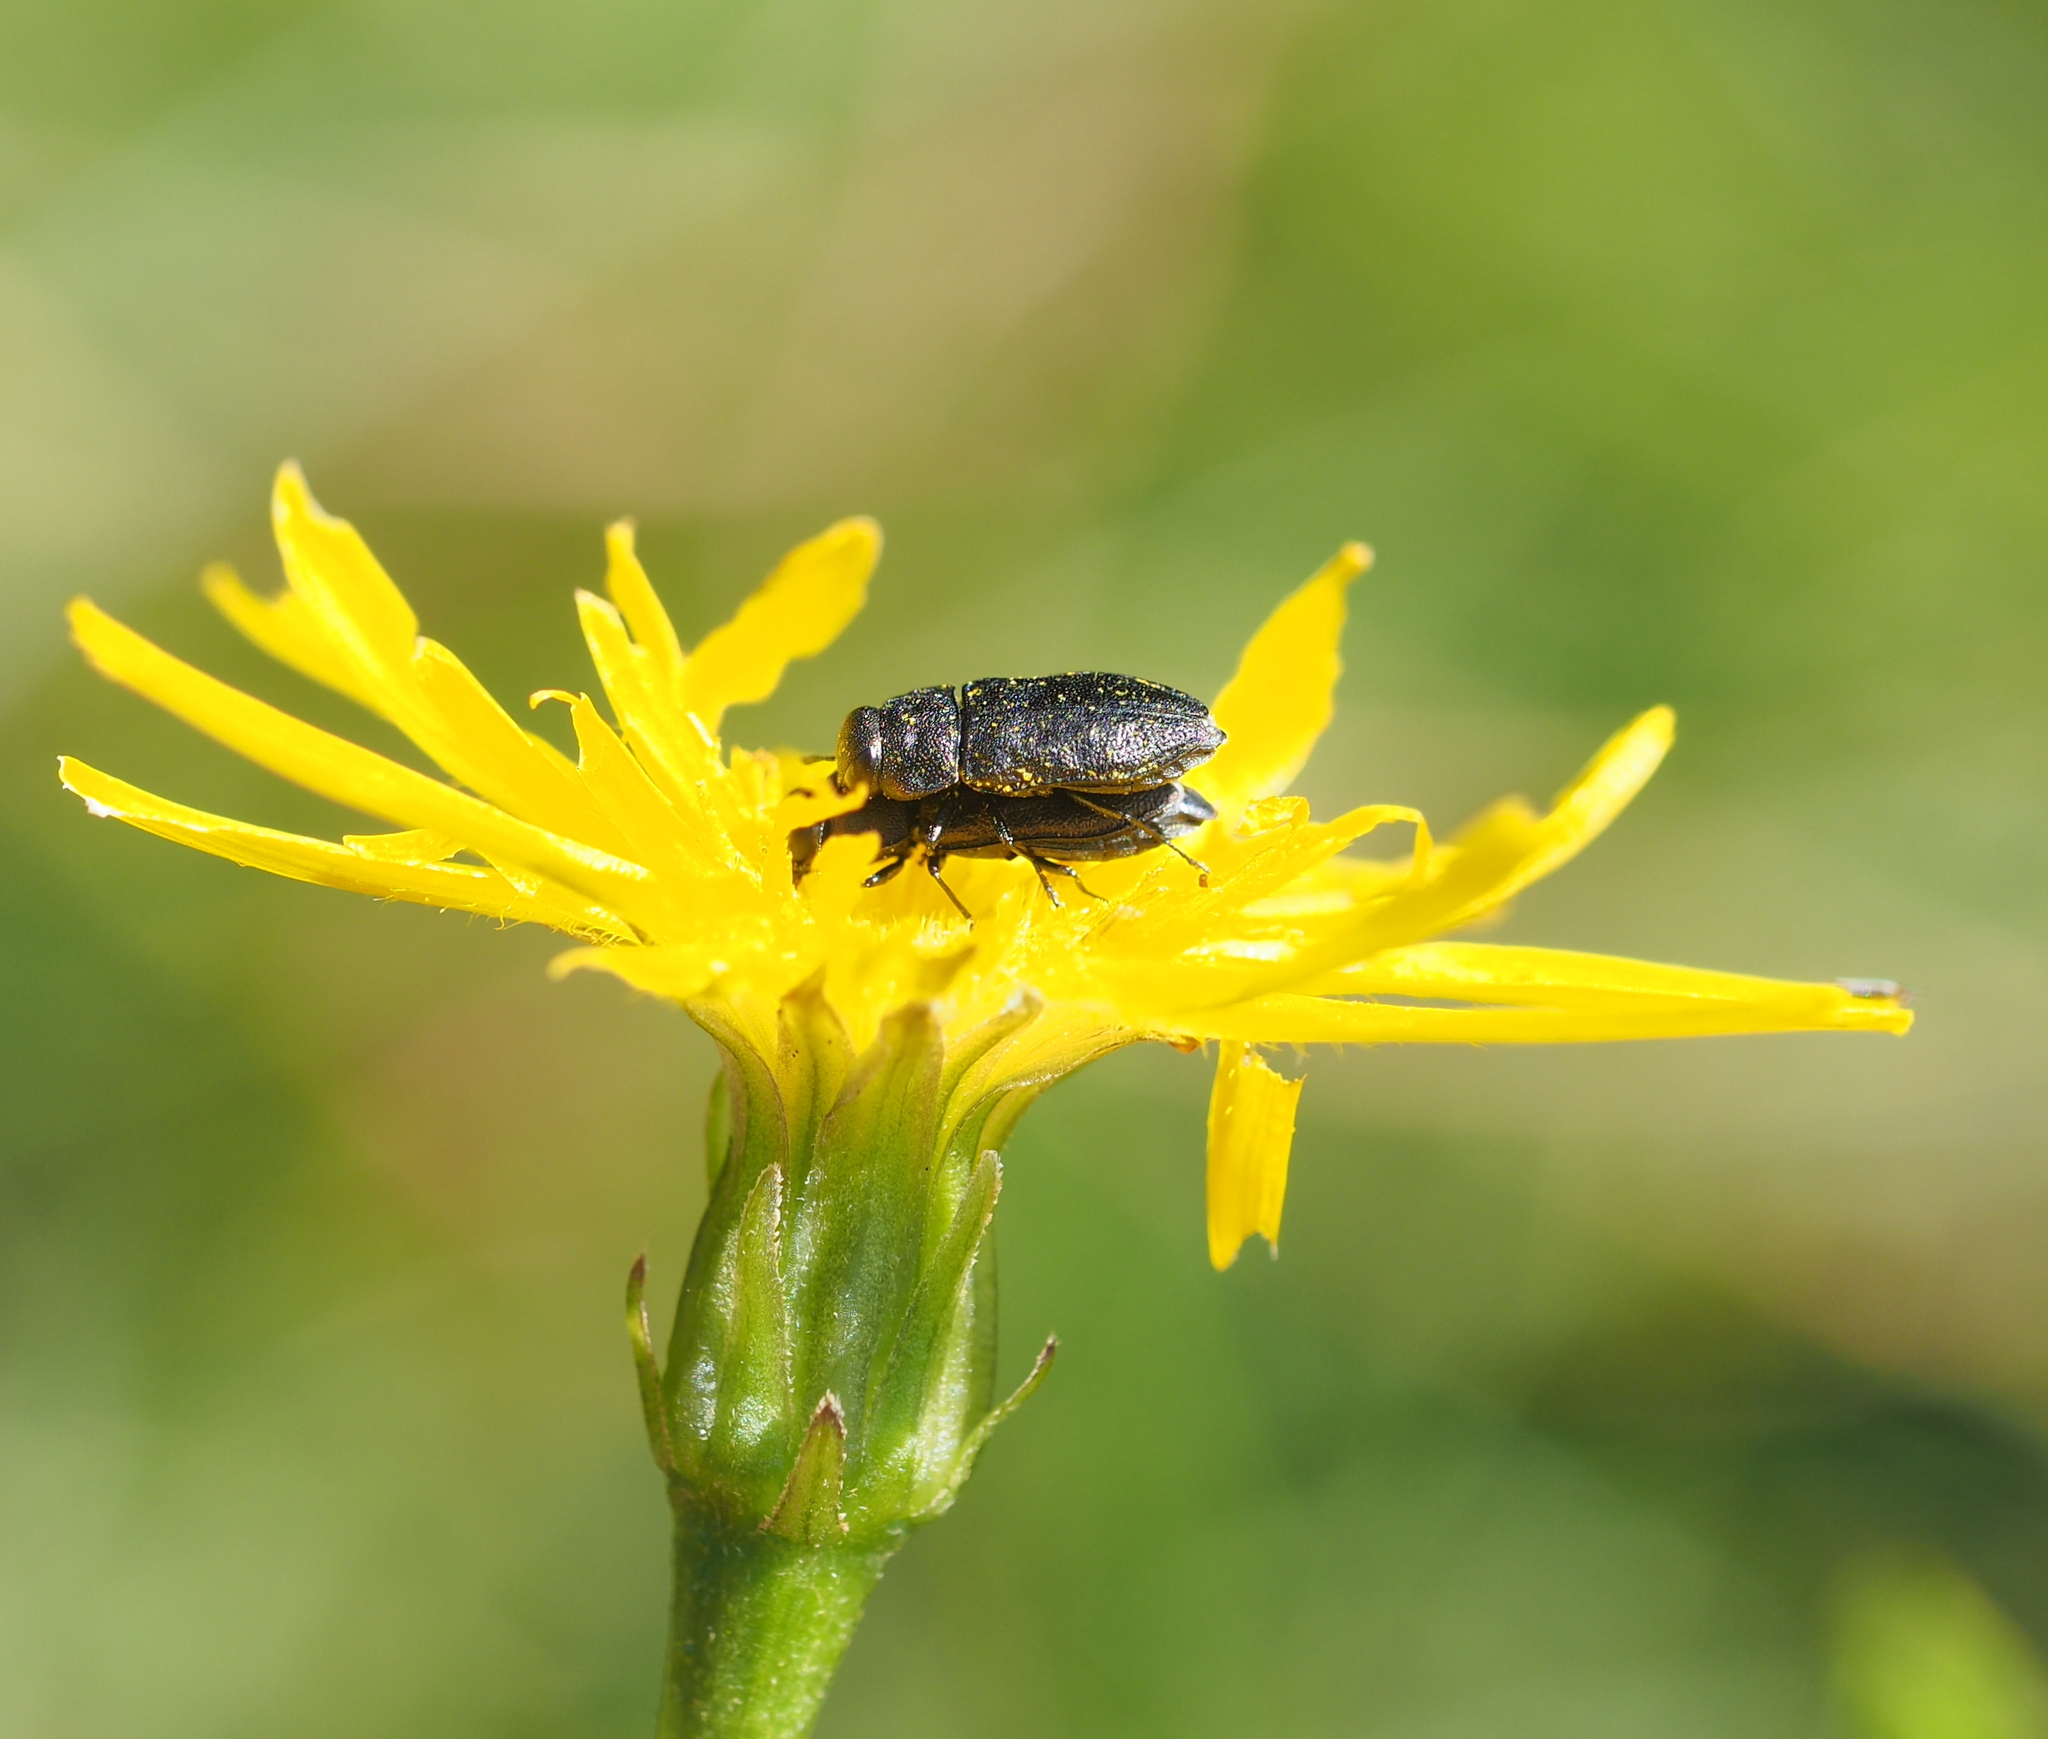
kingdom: Animalia
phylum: Arthropoda
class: Insecta
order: Coleoptera
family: Buprestidae
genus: Anthaxia
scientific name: Anthaxia quadripunctata
